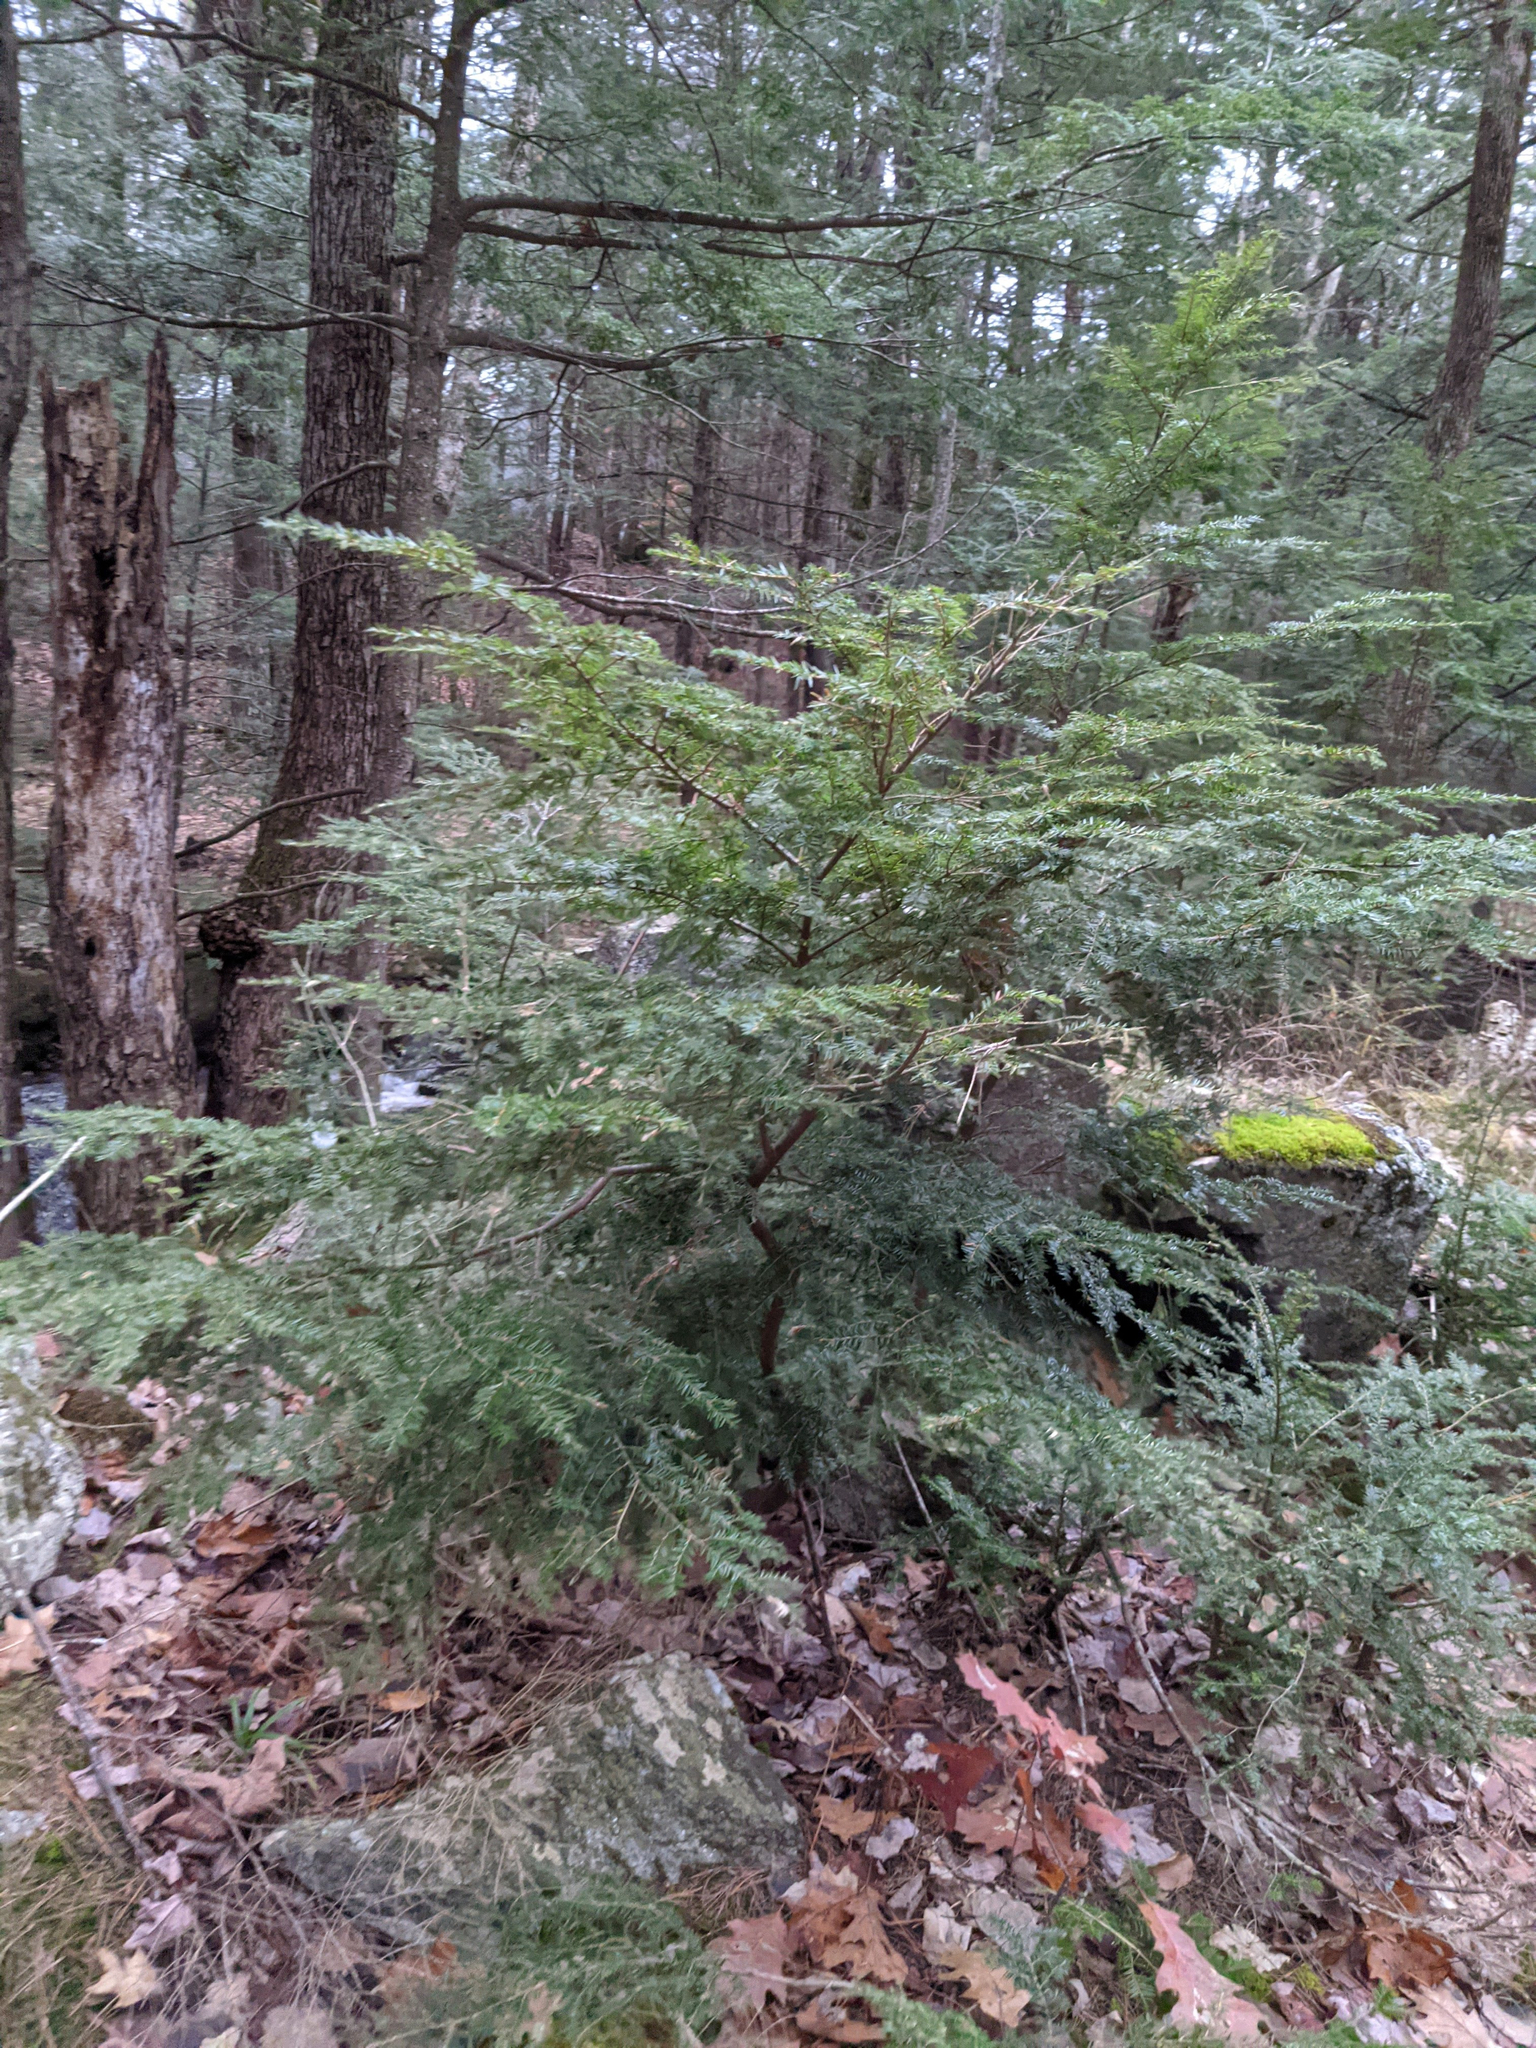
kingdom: Plantae
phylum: Tracheophyta
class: Pinopsida
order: Pinales
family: Pinaceae
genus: Tsuga
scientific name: Tsuga canadensis
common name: Eastern hemlock
